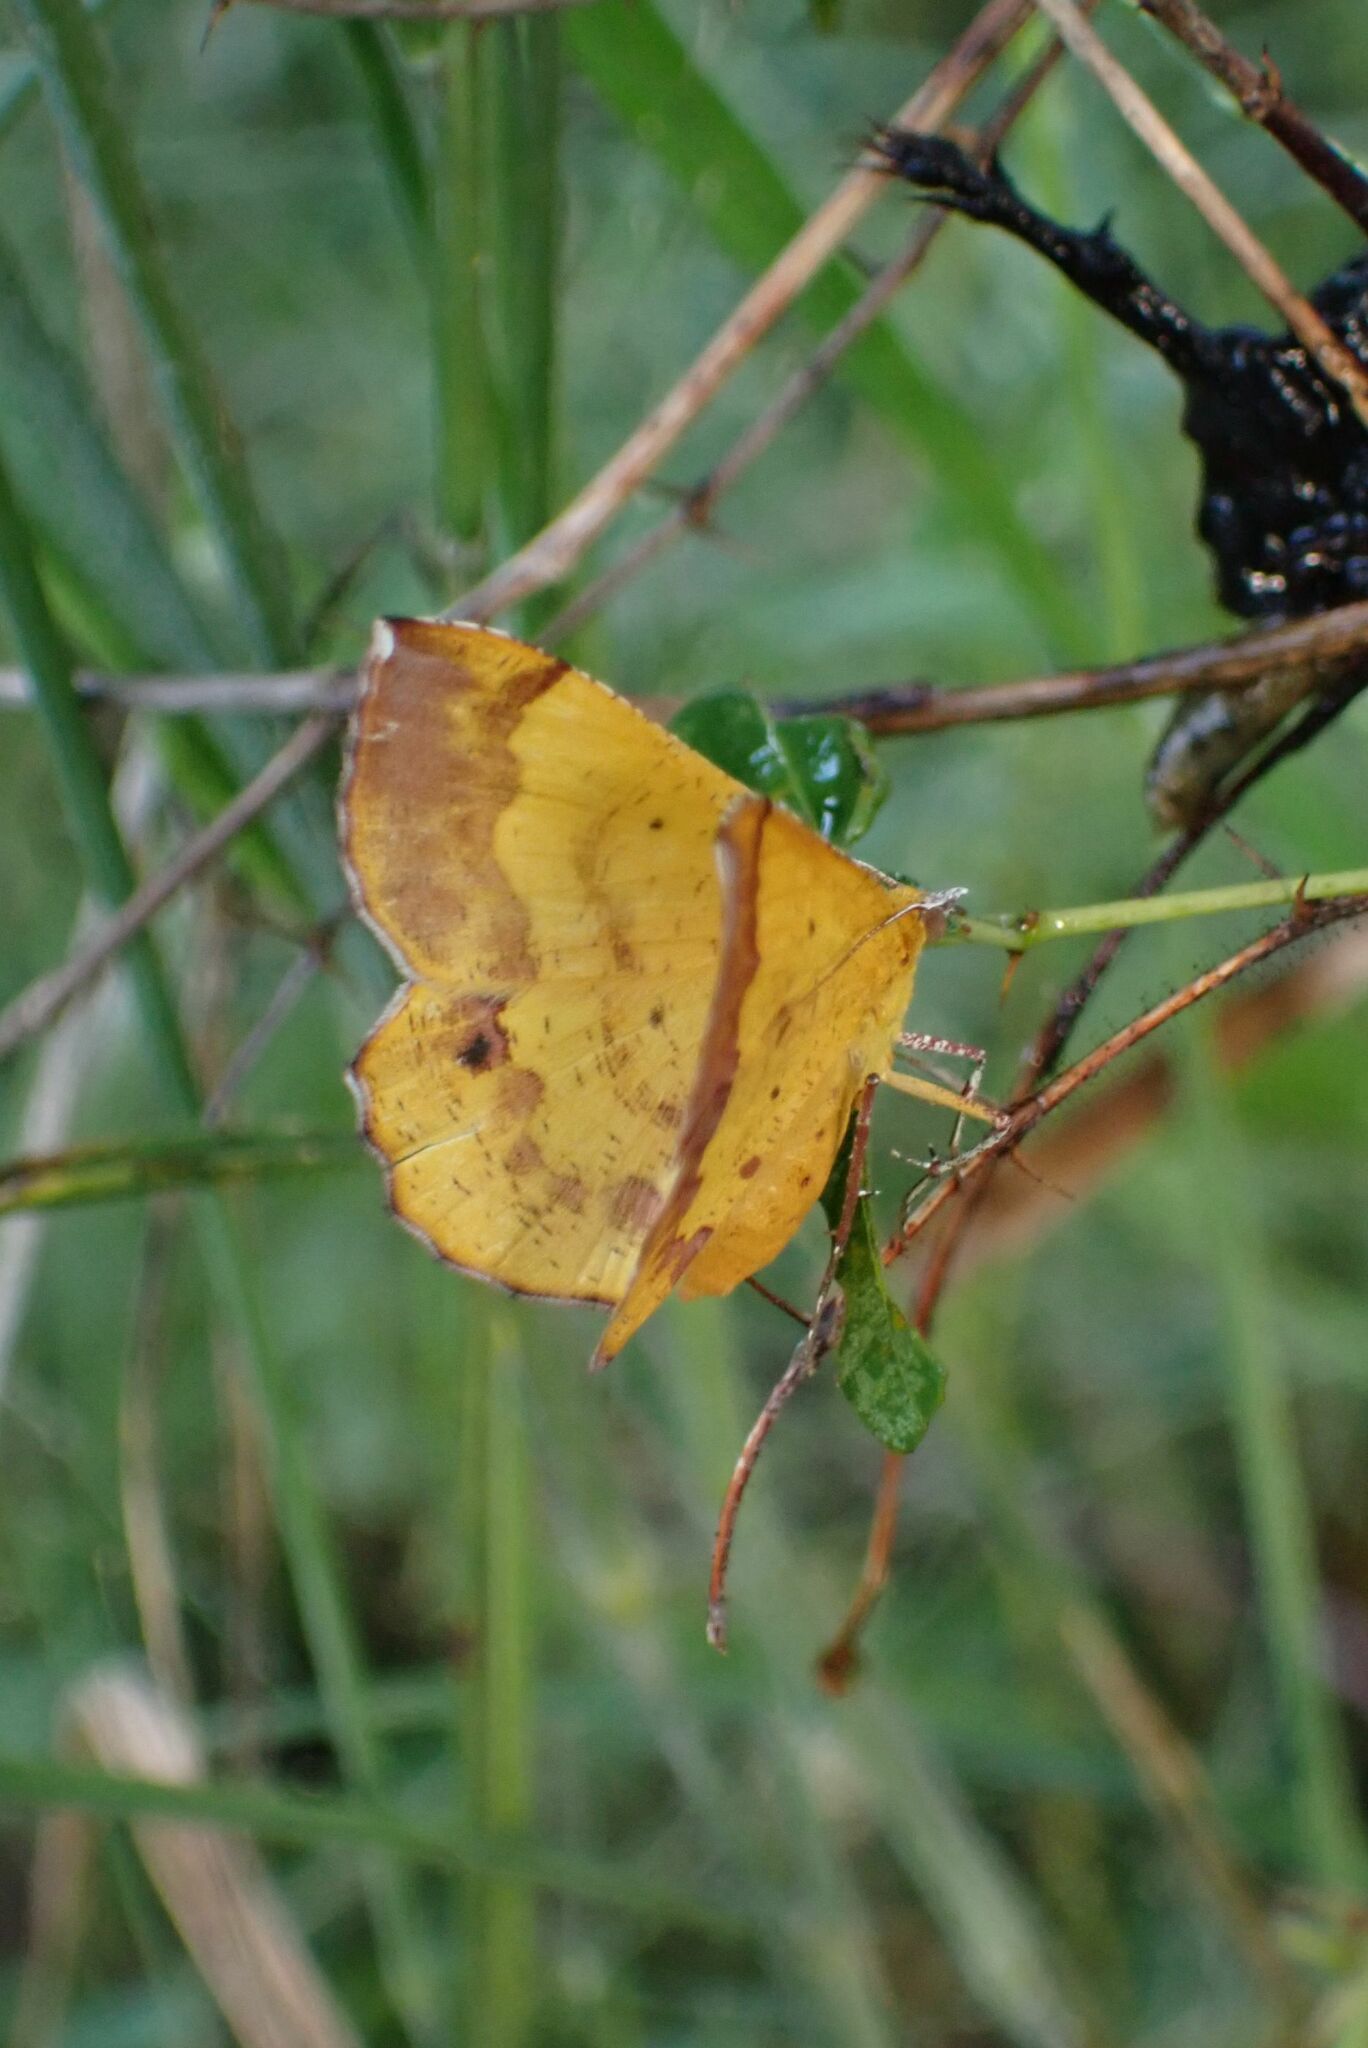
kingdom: Animalia
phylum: Arthropoda
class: Insecta
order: Lepidoptera
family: Geometridae
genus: Erastria
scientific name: Erastria leucicolor
